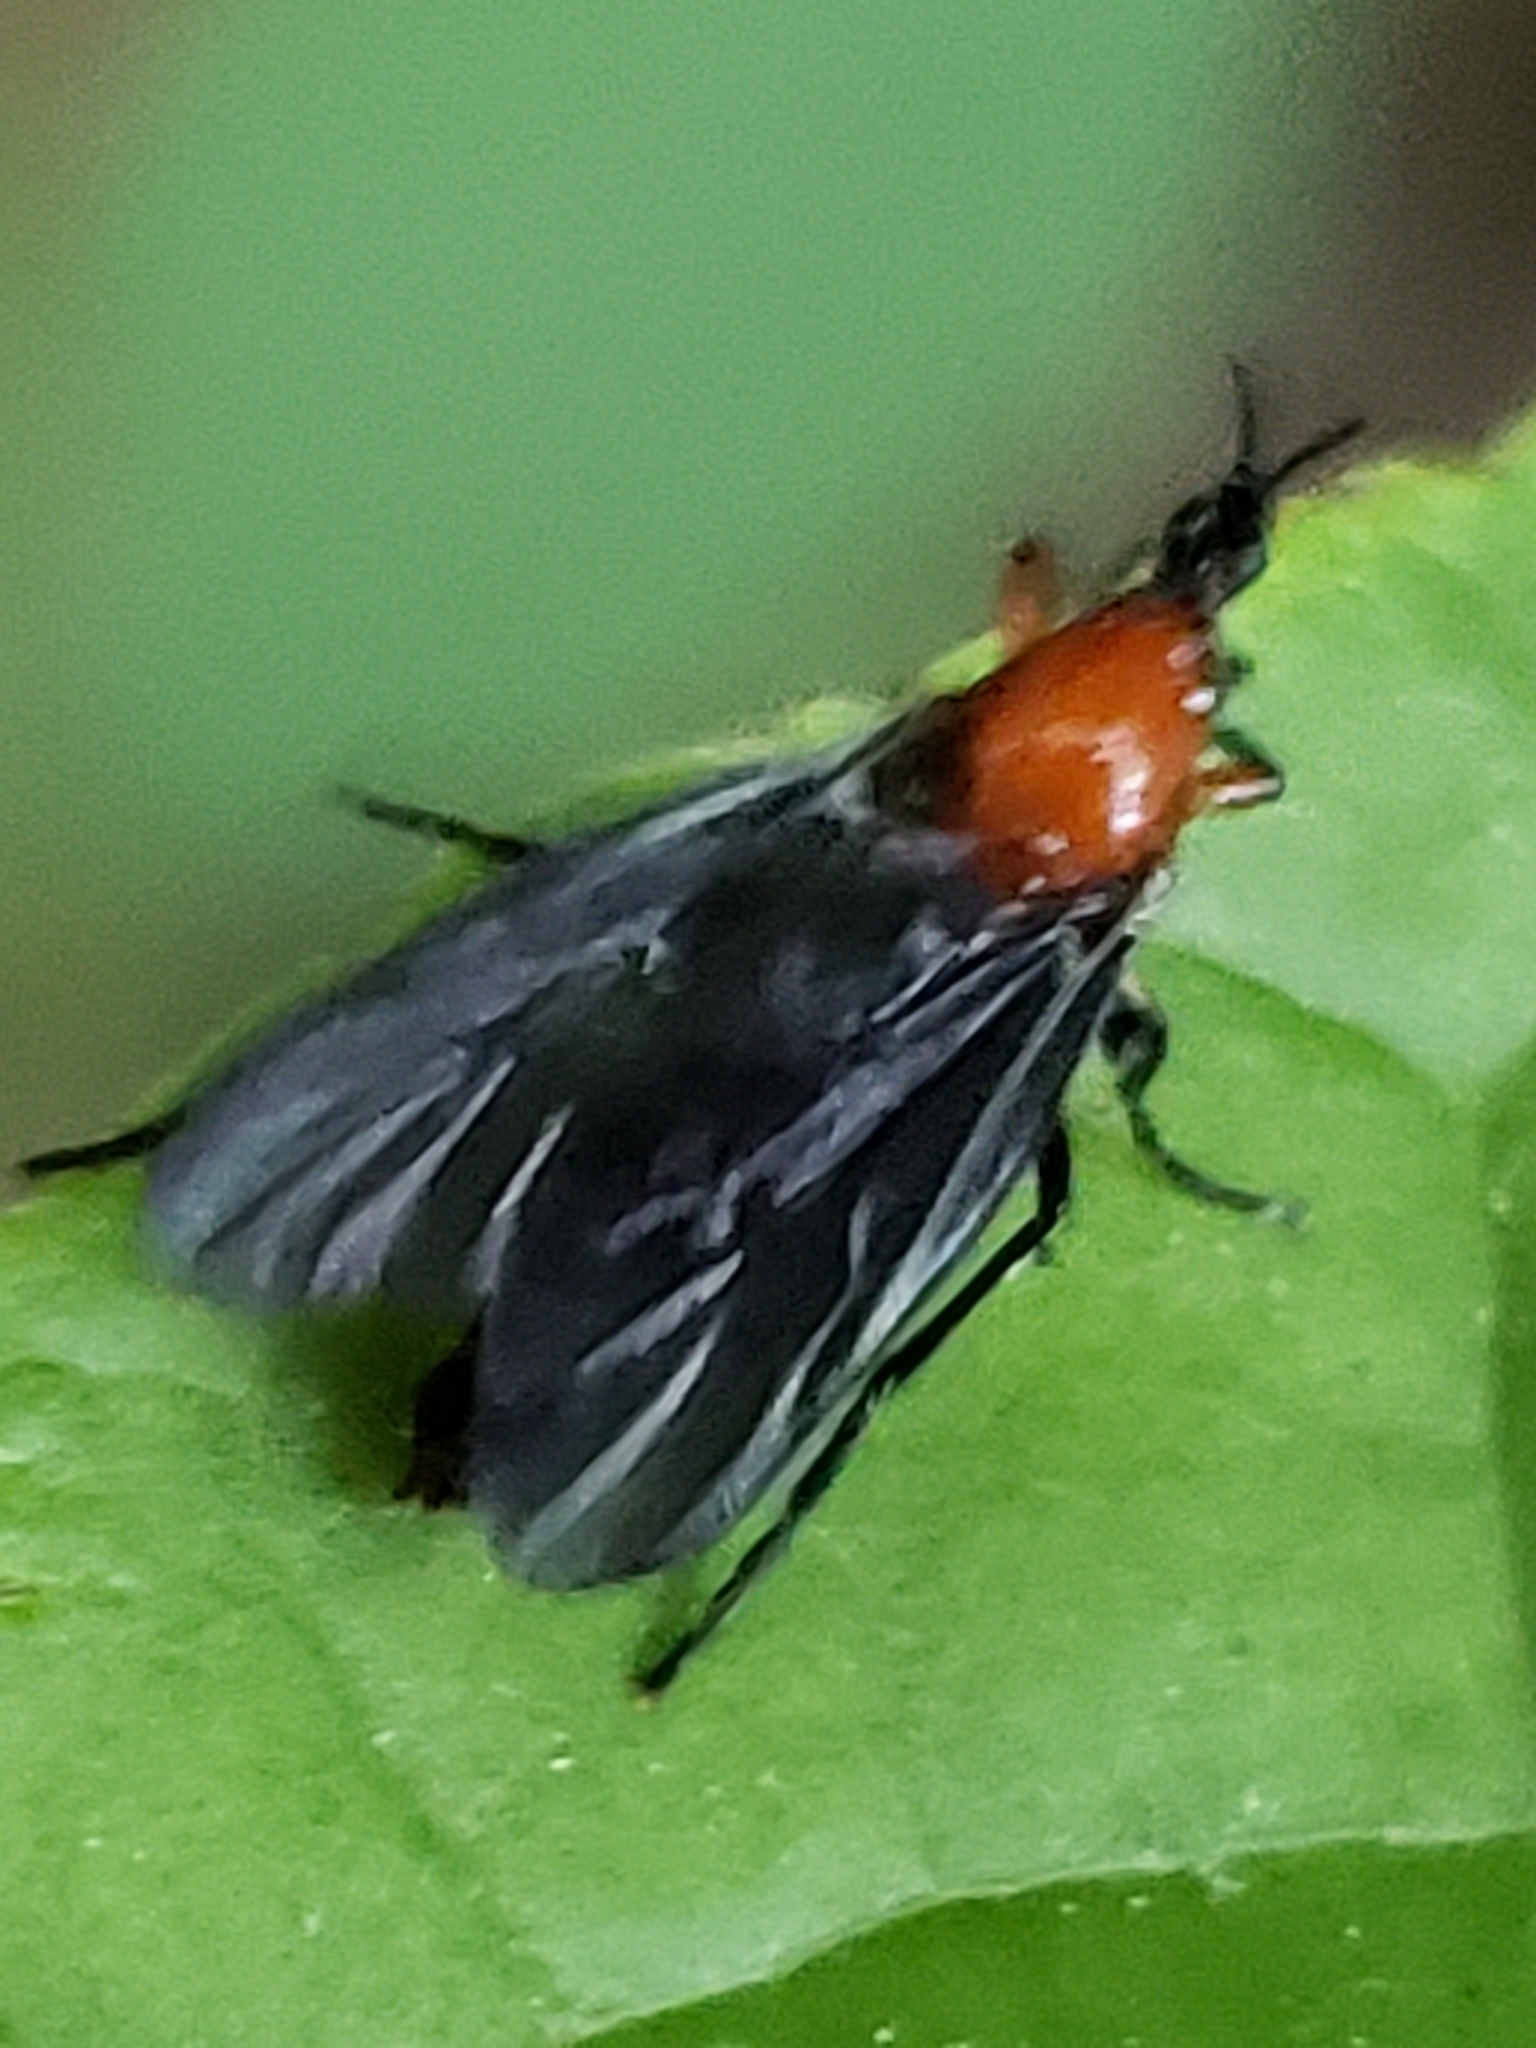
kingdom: Animalia
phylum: Arthropoda
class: Insecta
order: Diptera
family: Bibionidae
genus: Dilophus
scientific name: Dilophus spinipes
